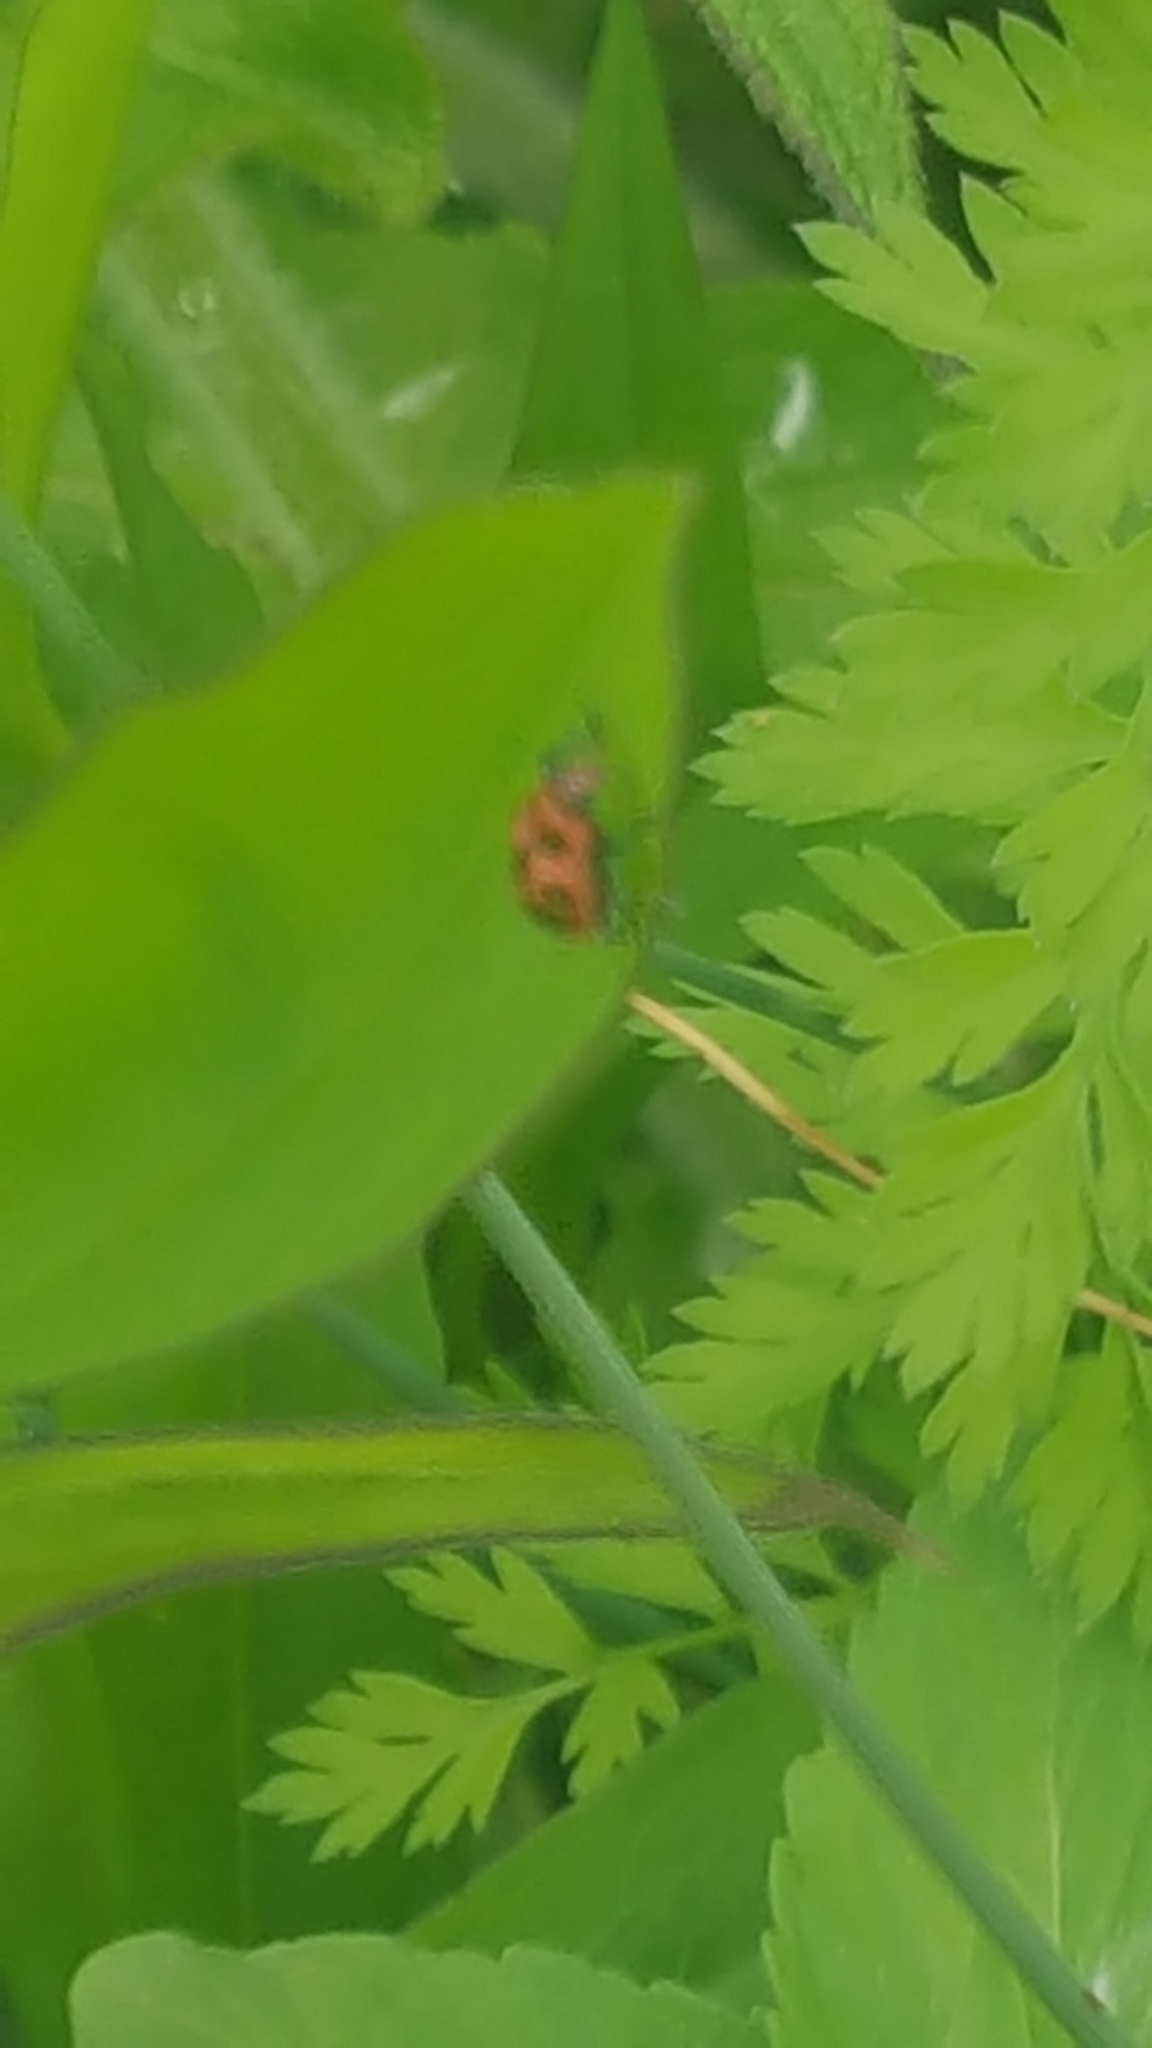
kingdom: Animalia
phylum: Arthropoda
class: Insecta
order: Coleoptera
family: Coccinellidae
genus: Coleomegilla
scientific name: Coleomegilla maculata
